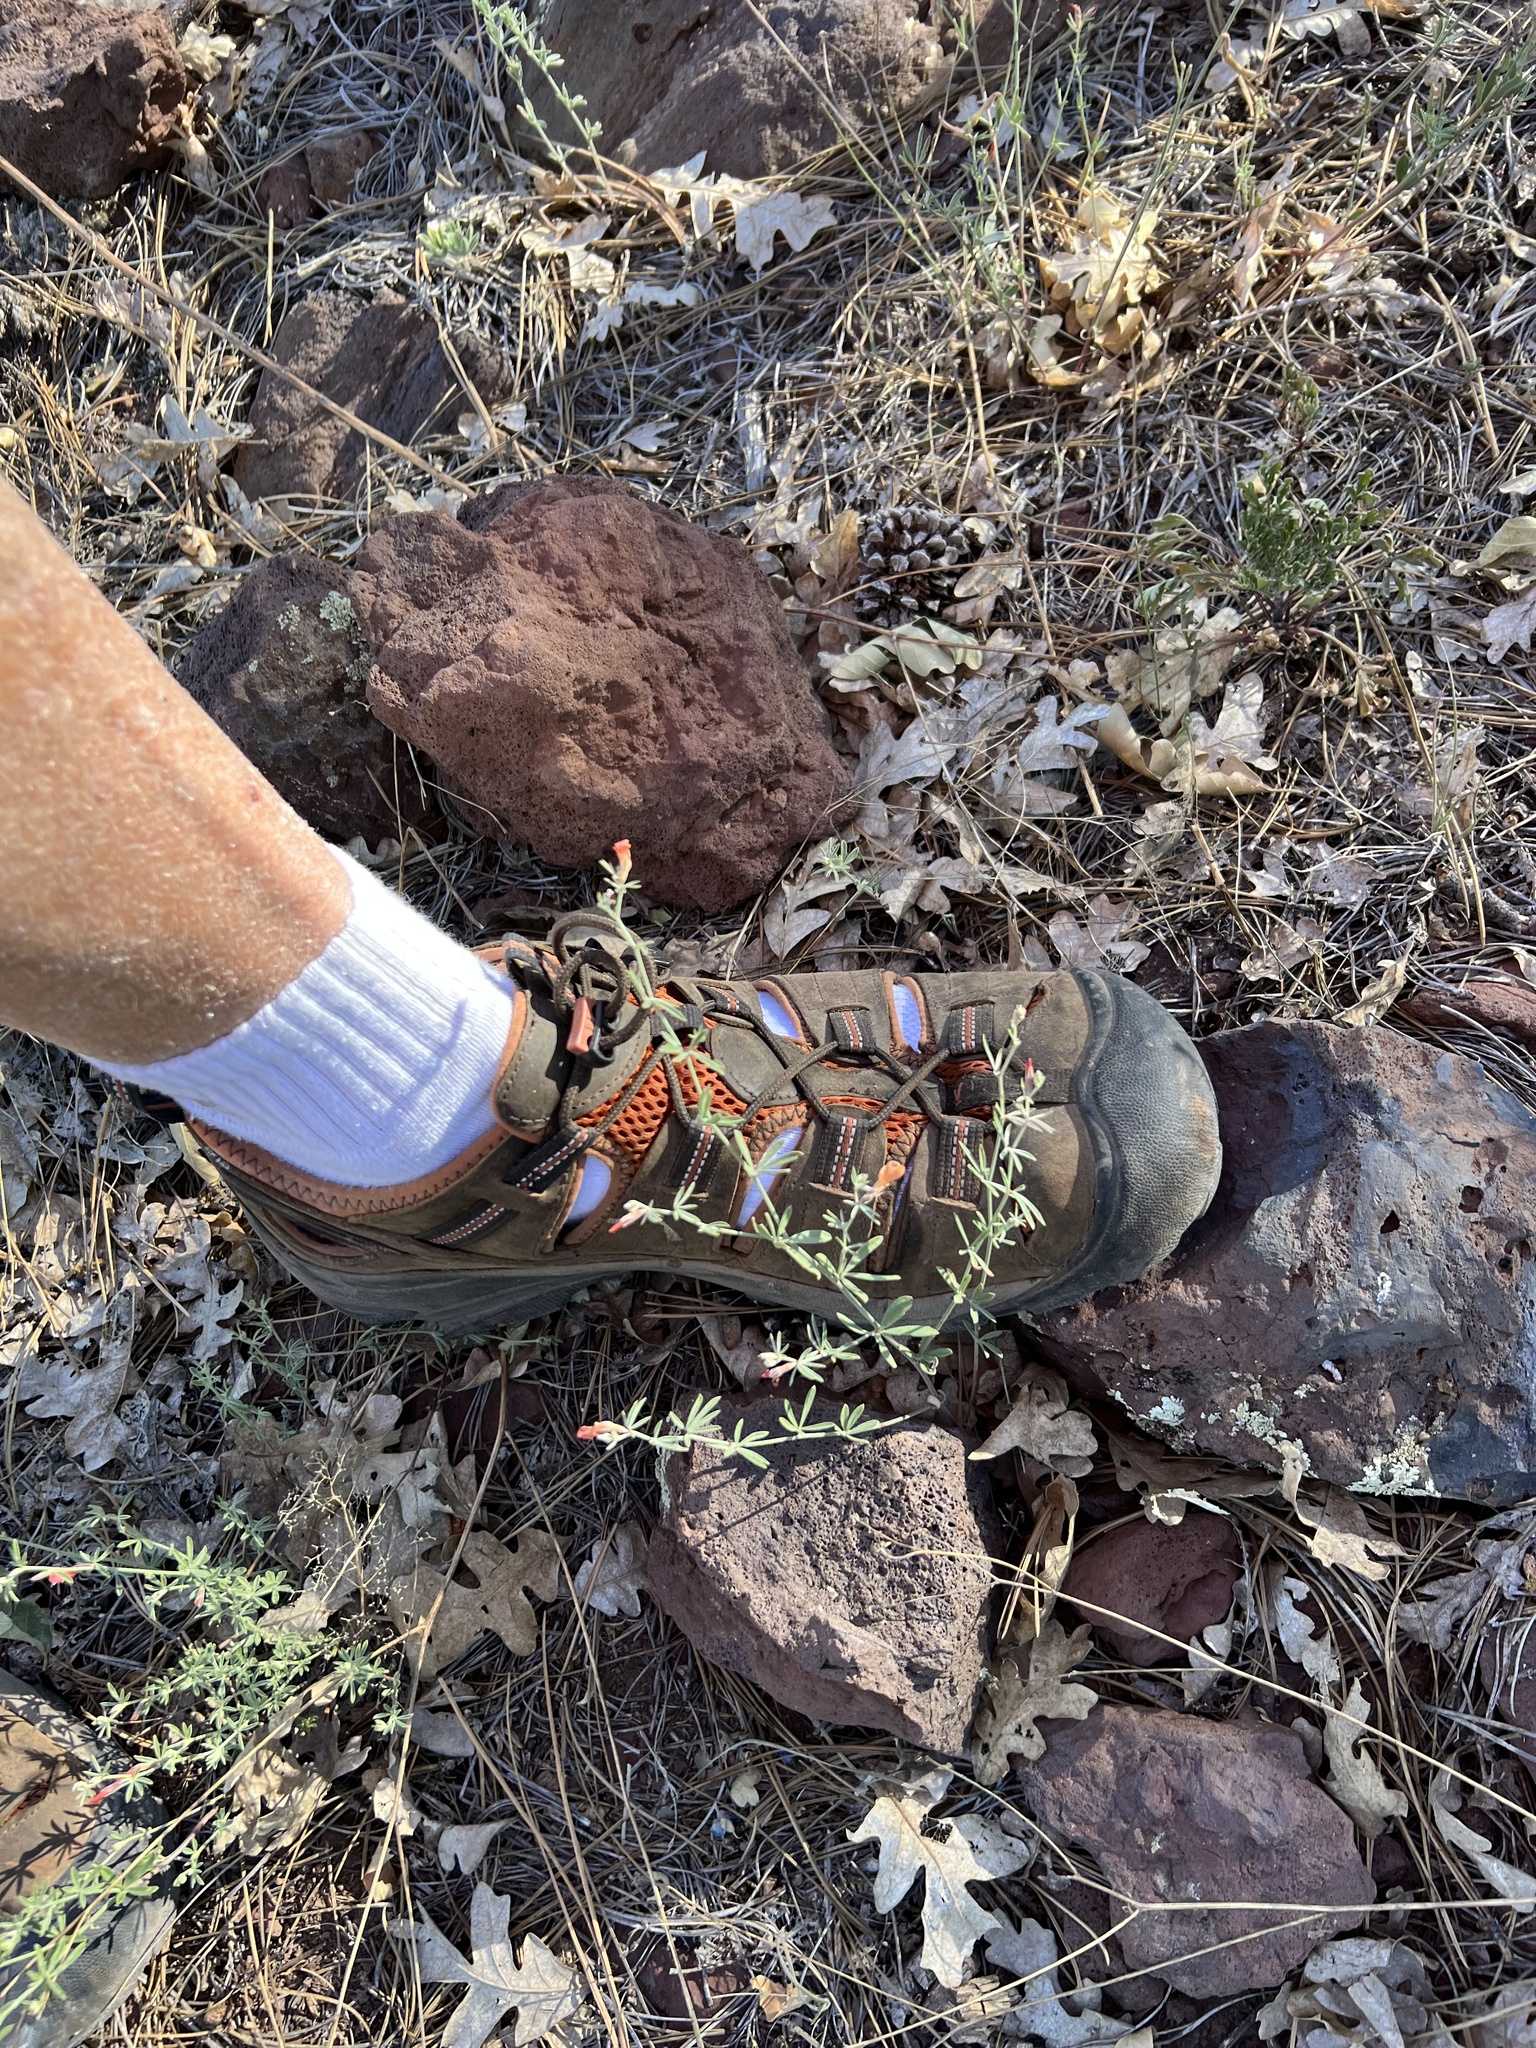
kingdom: Plantae
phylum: Tracheophyta
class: Magnoliopsida
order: Fabales
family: Fabaceae
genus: Acmispon
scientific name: Acmispon wrightii
